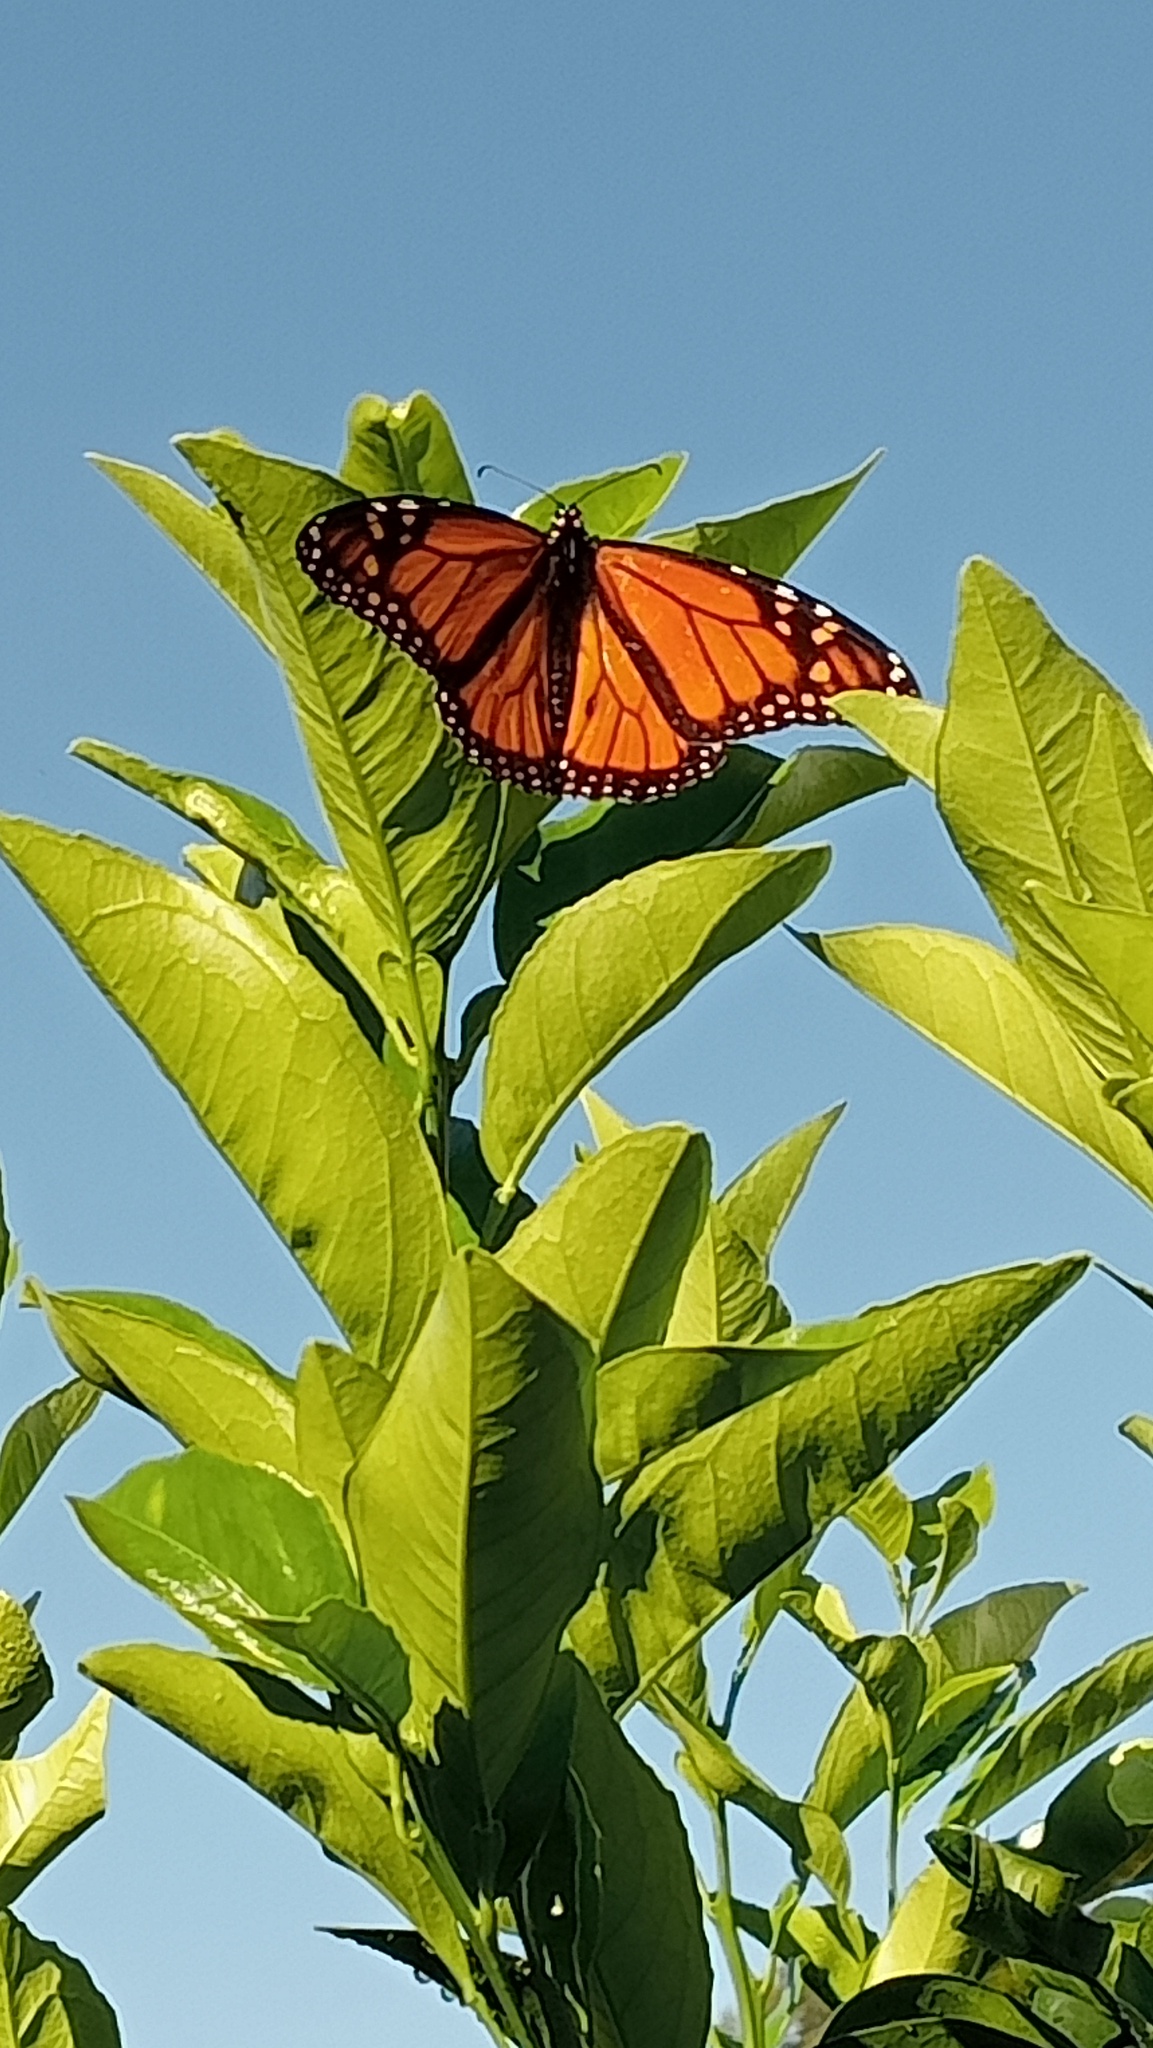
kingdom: Animalia
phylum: Arthropoda
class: Insecta
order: Lepidoptera
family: Nymphalidae
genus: Danaus
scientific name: Danaus plexippus
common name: Monarch
